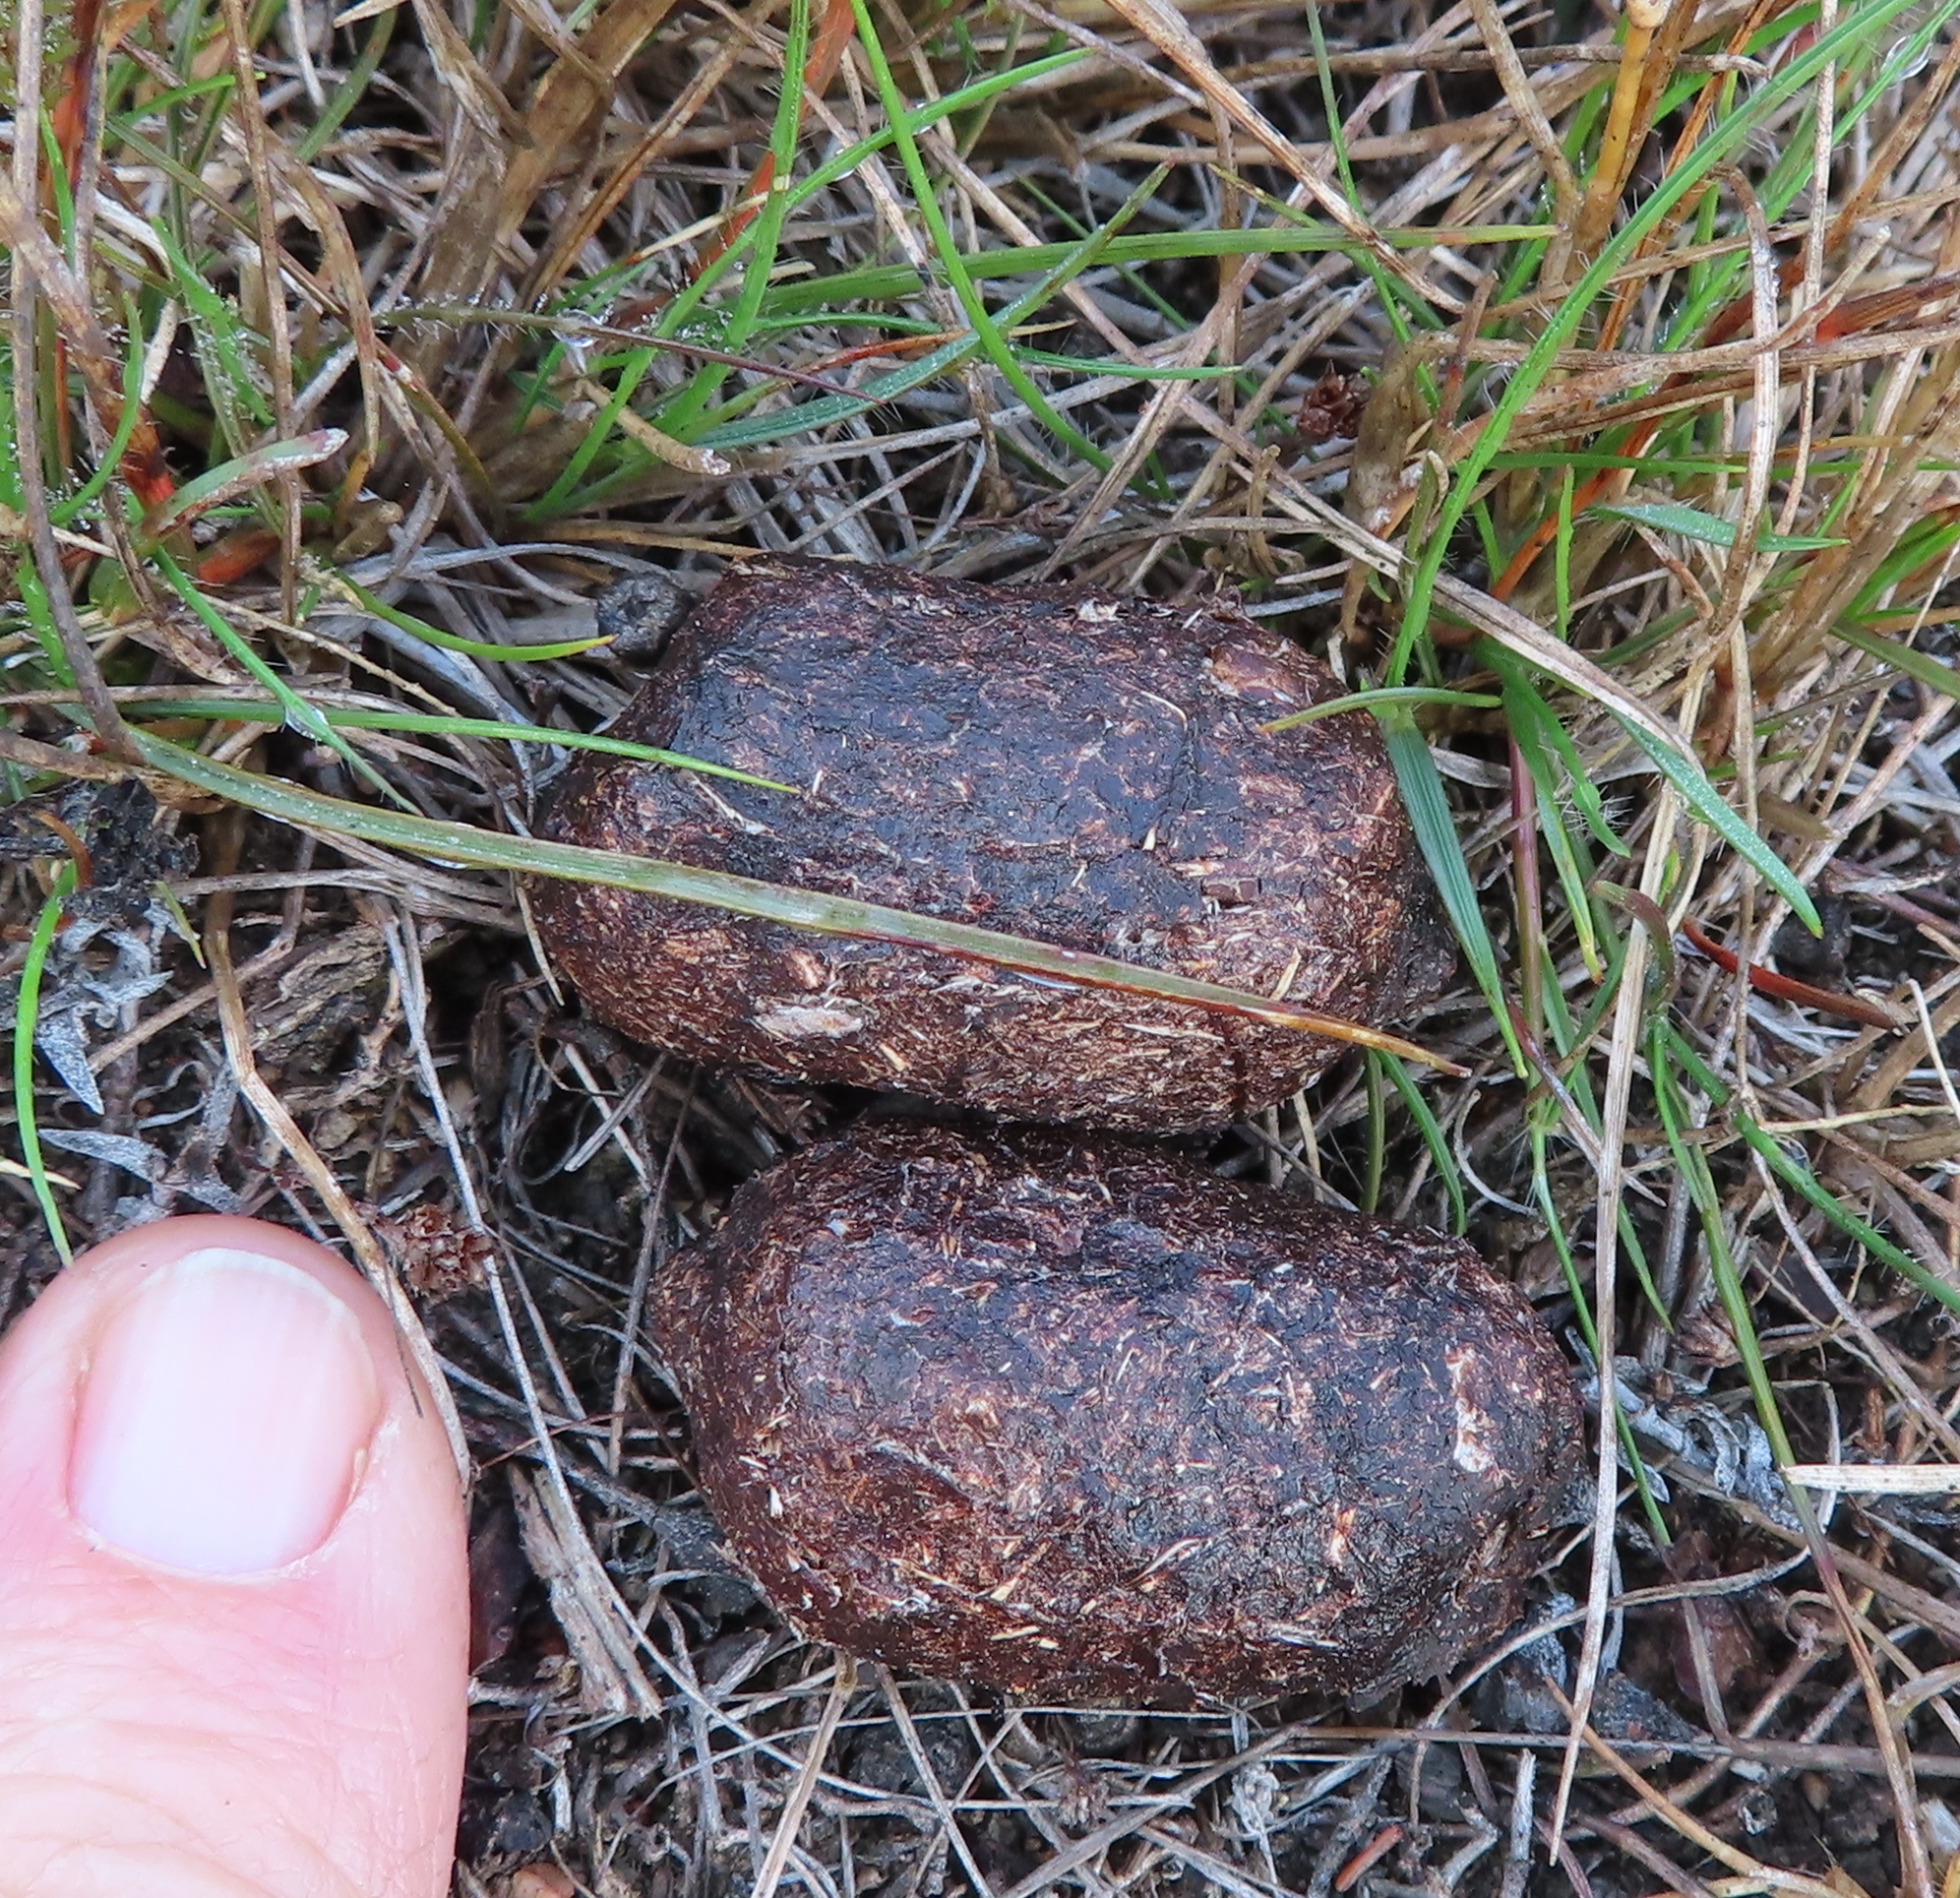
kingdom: Animalia
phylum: Chordata
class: Mammalia
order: Artiodactyla
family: Bovidae
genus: Taurotragus
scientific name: Taurotragus oryx
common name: Common eland
